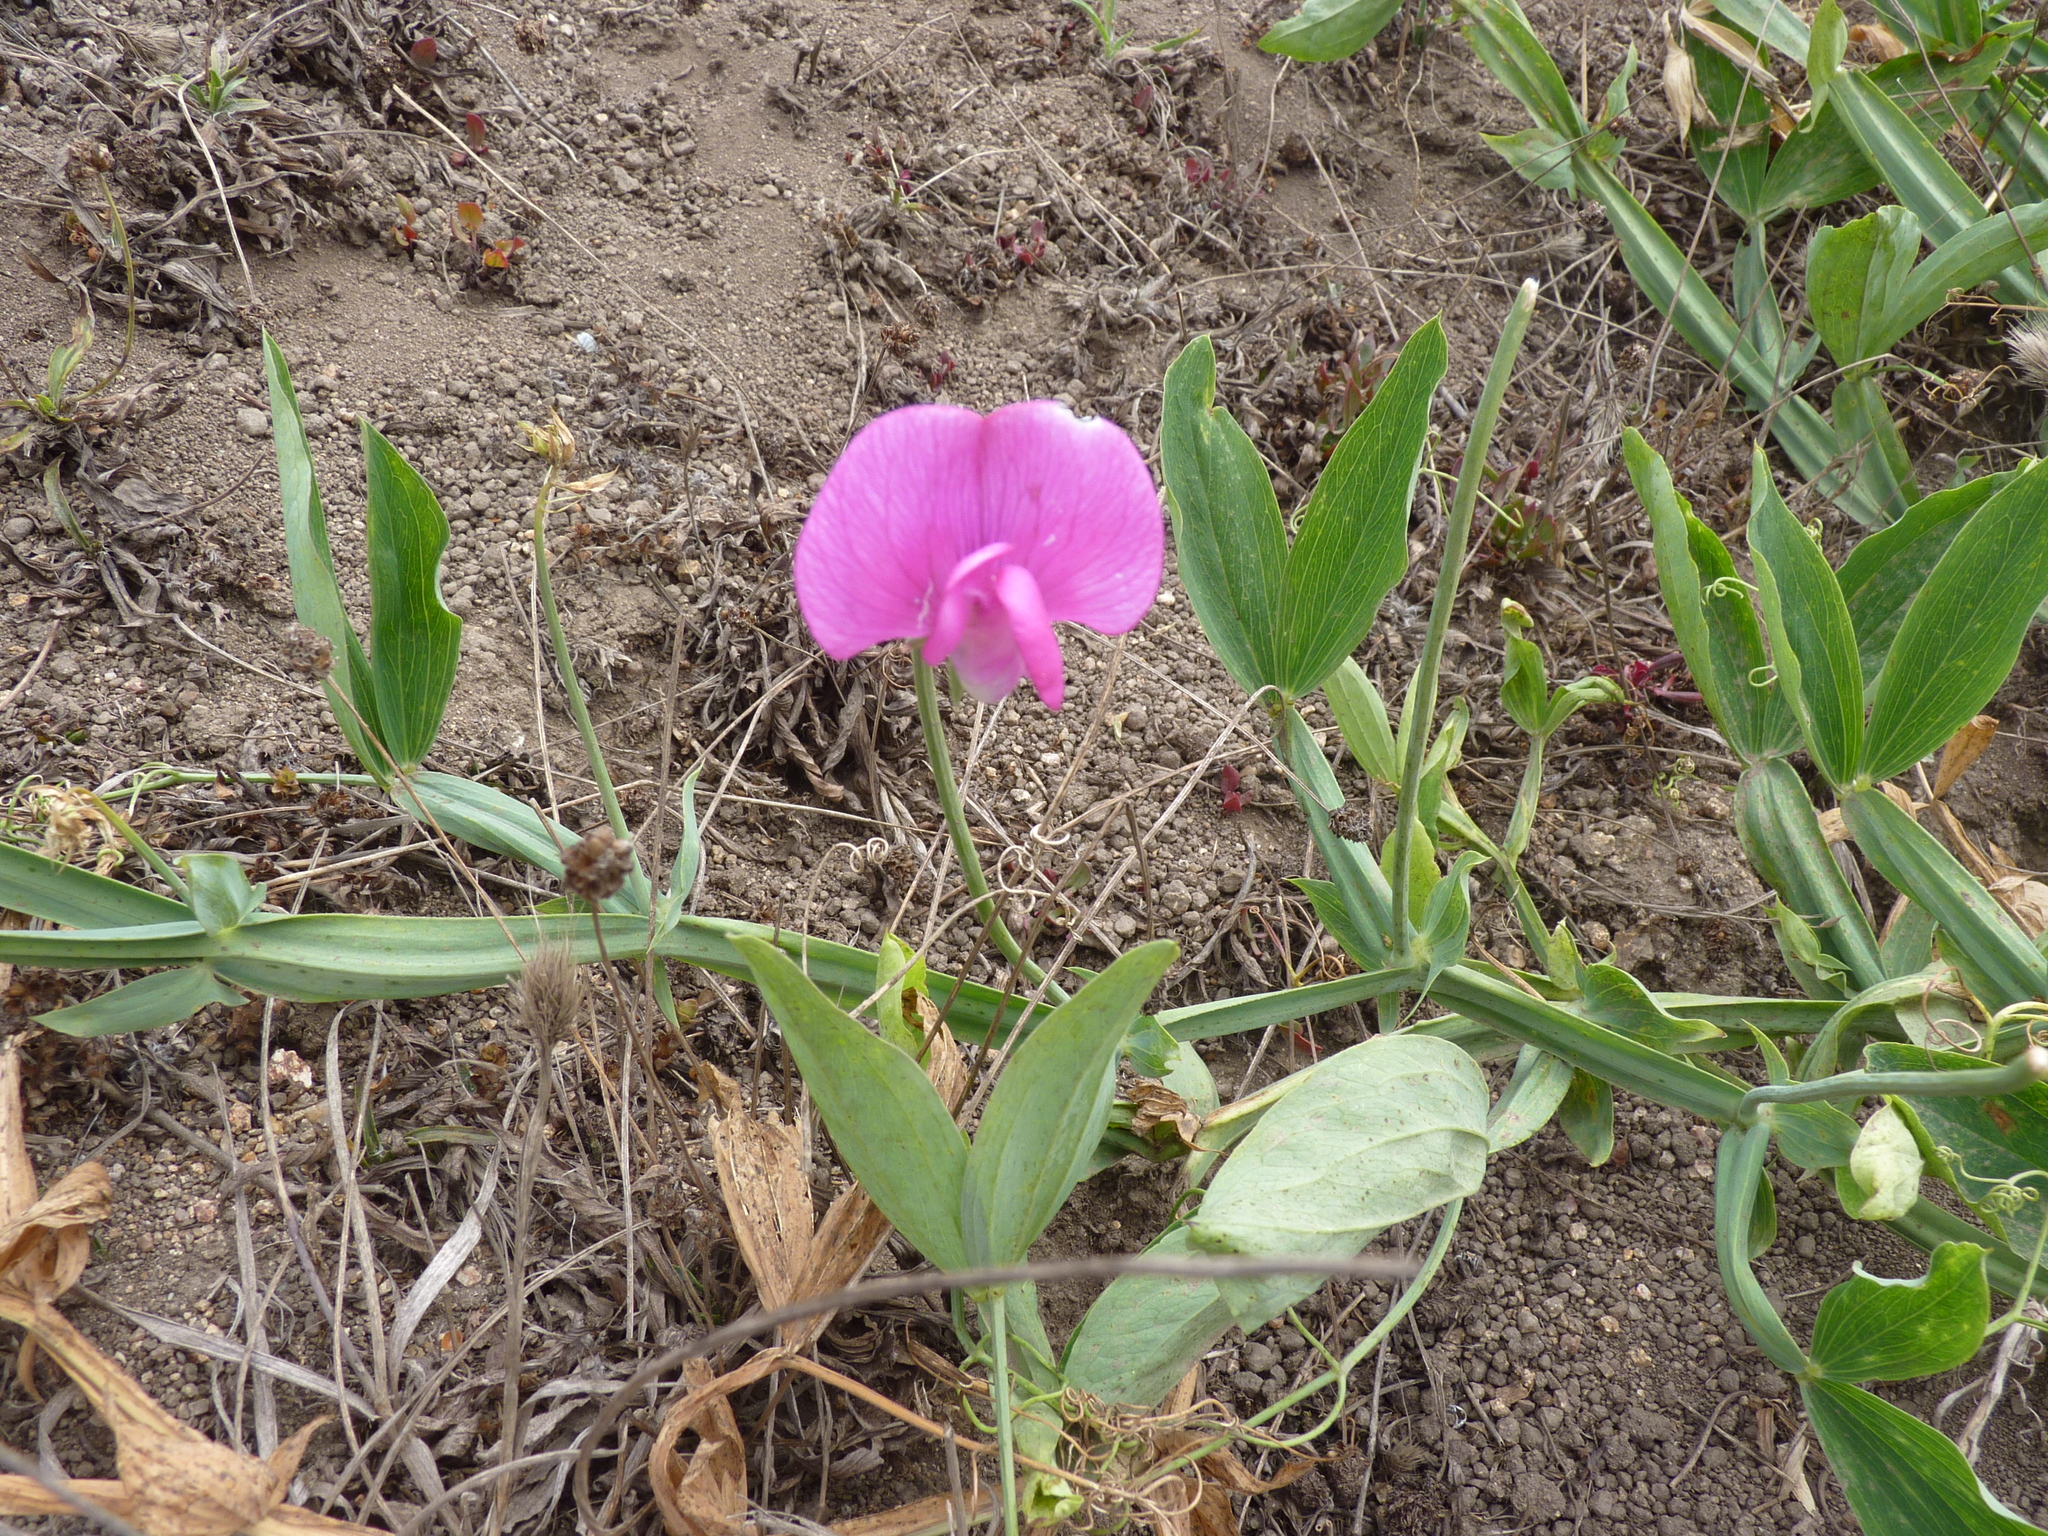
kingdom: Plantae
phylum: Tracheophyta
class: Magnoliopsida
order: Fabales
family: Fabaceae
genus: Lathyrus
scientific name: Lathyrus latifolius
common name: Perennial pea
